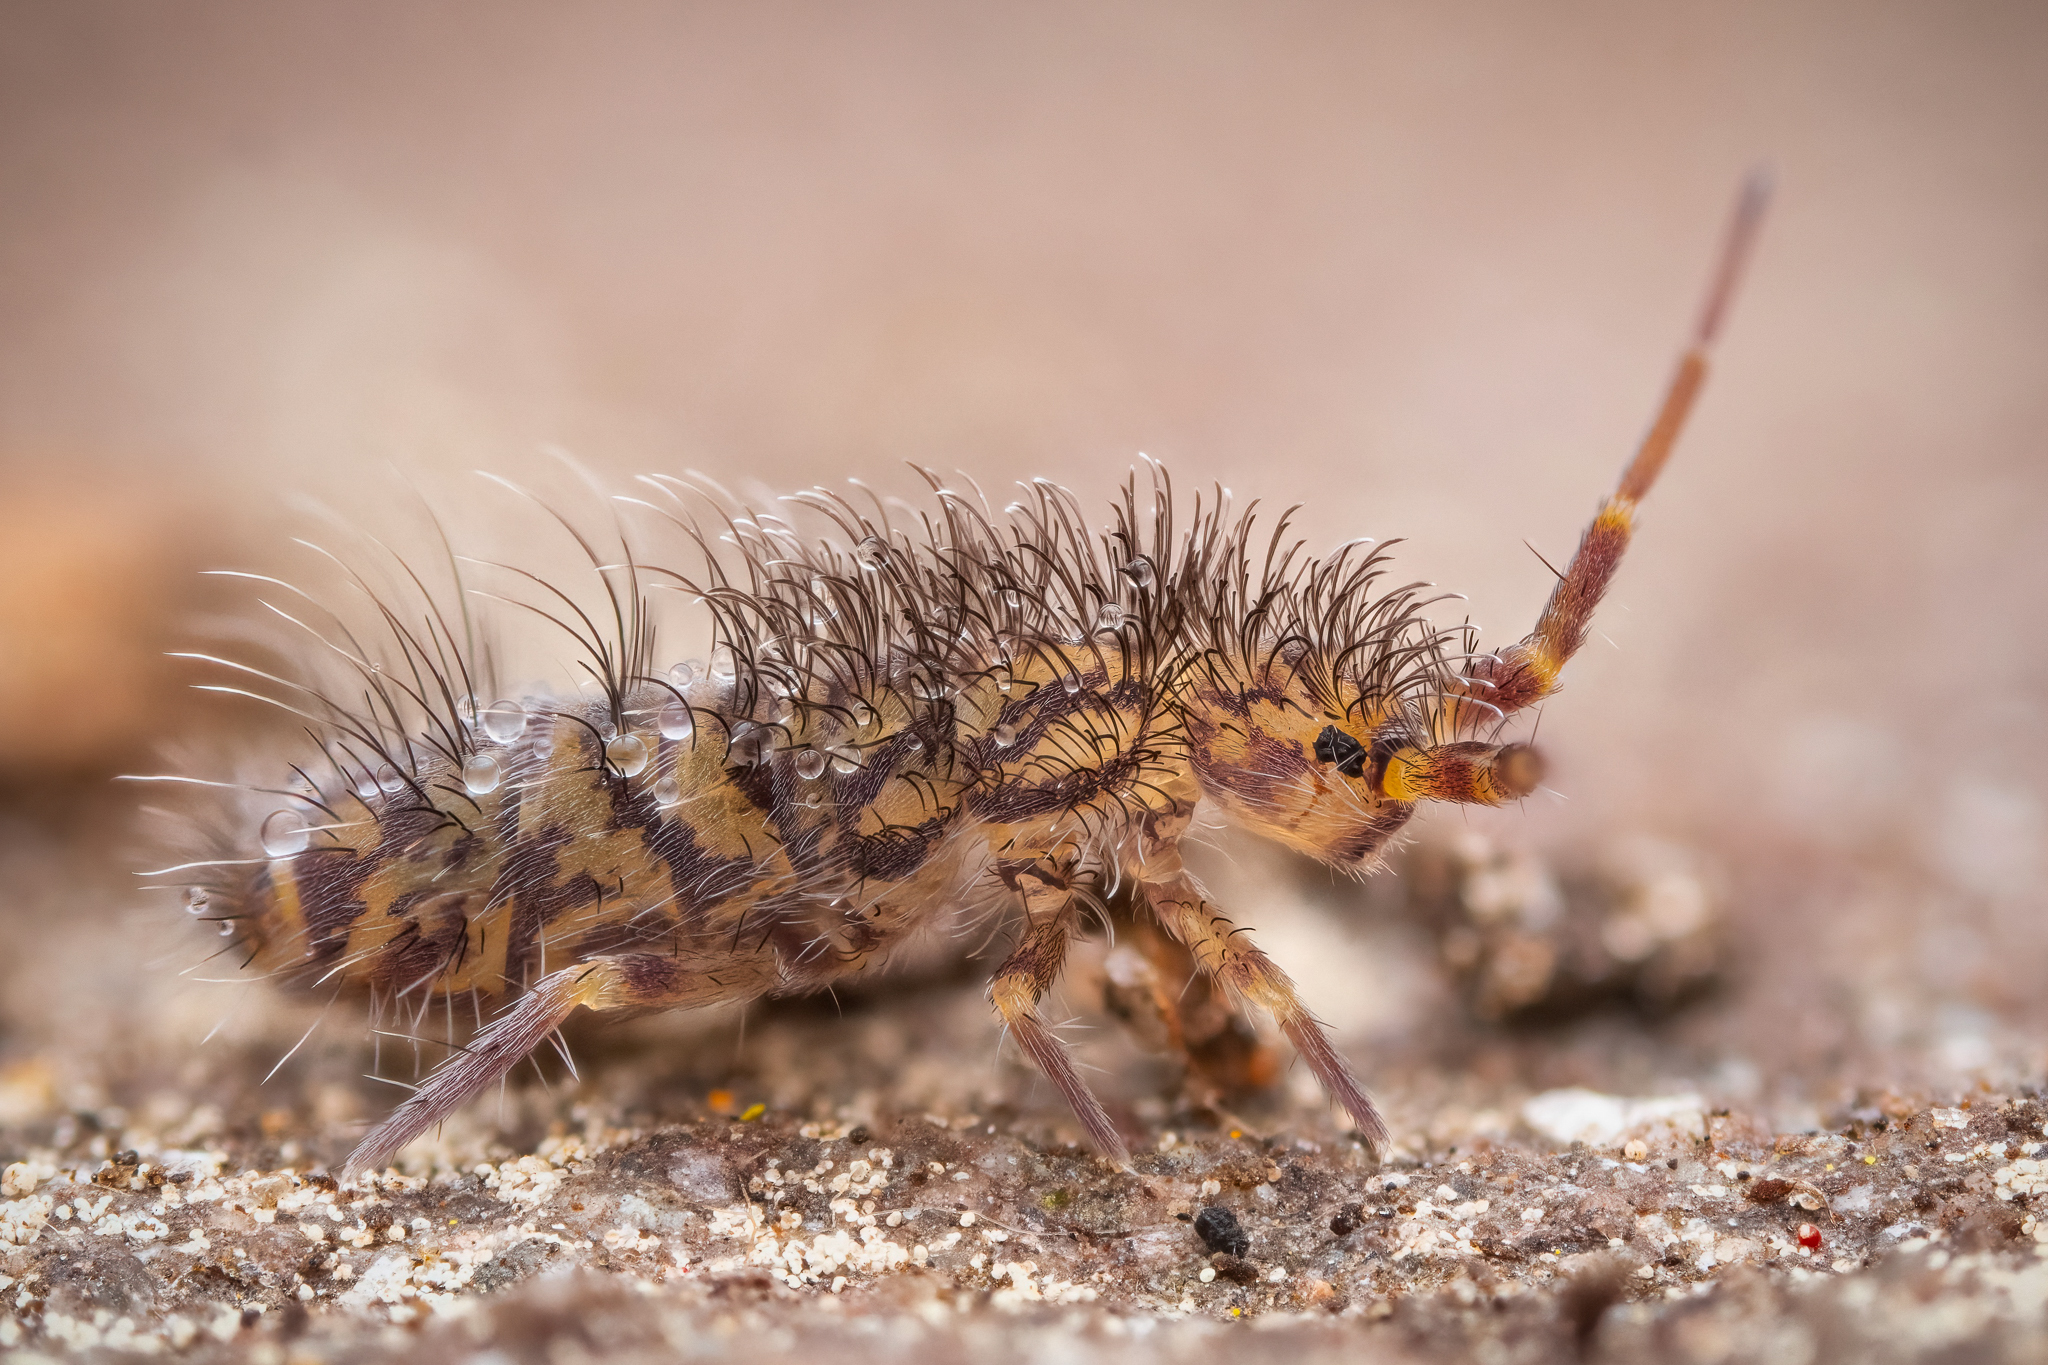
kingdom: Animalia
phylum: Arthropoda
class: Collembola
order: Entomobryomorpha
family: Orchesellidae
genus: Orchesella
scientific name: Orchesella villosa
